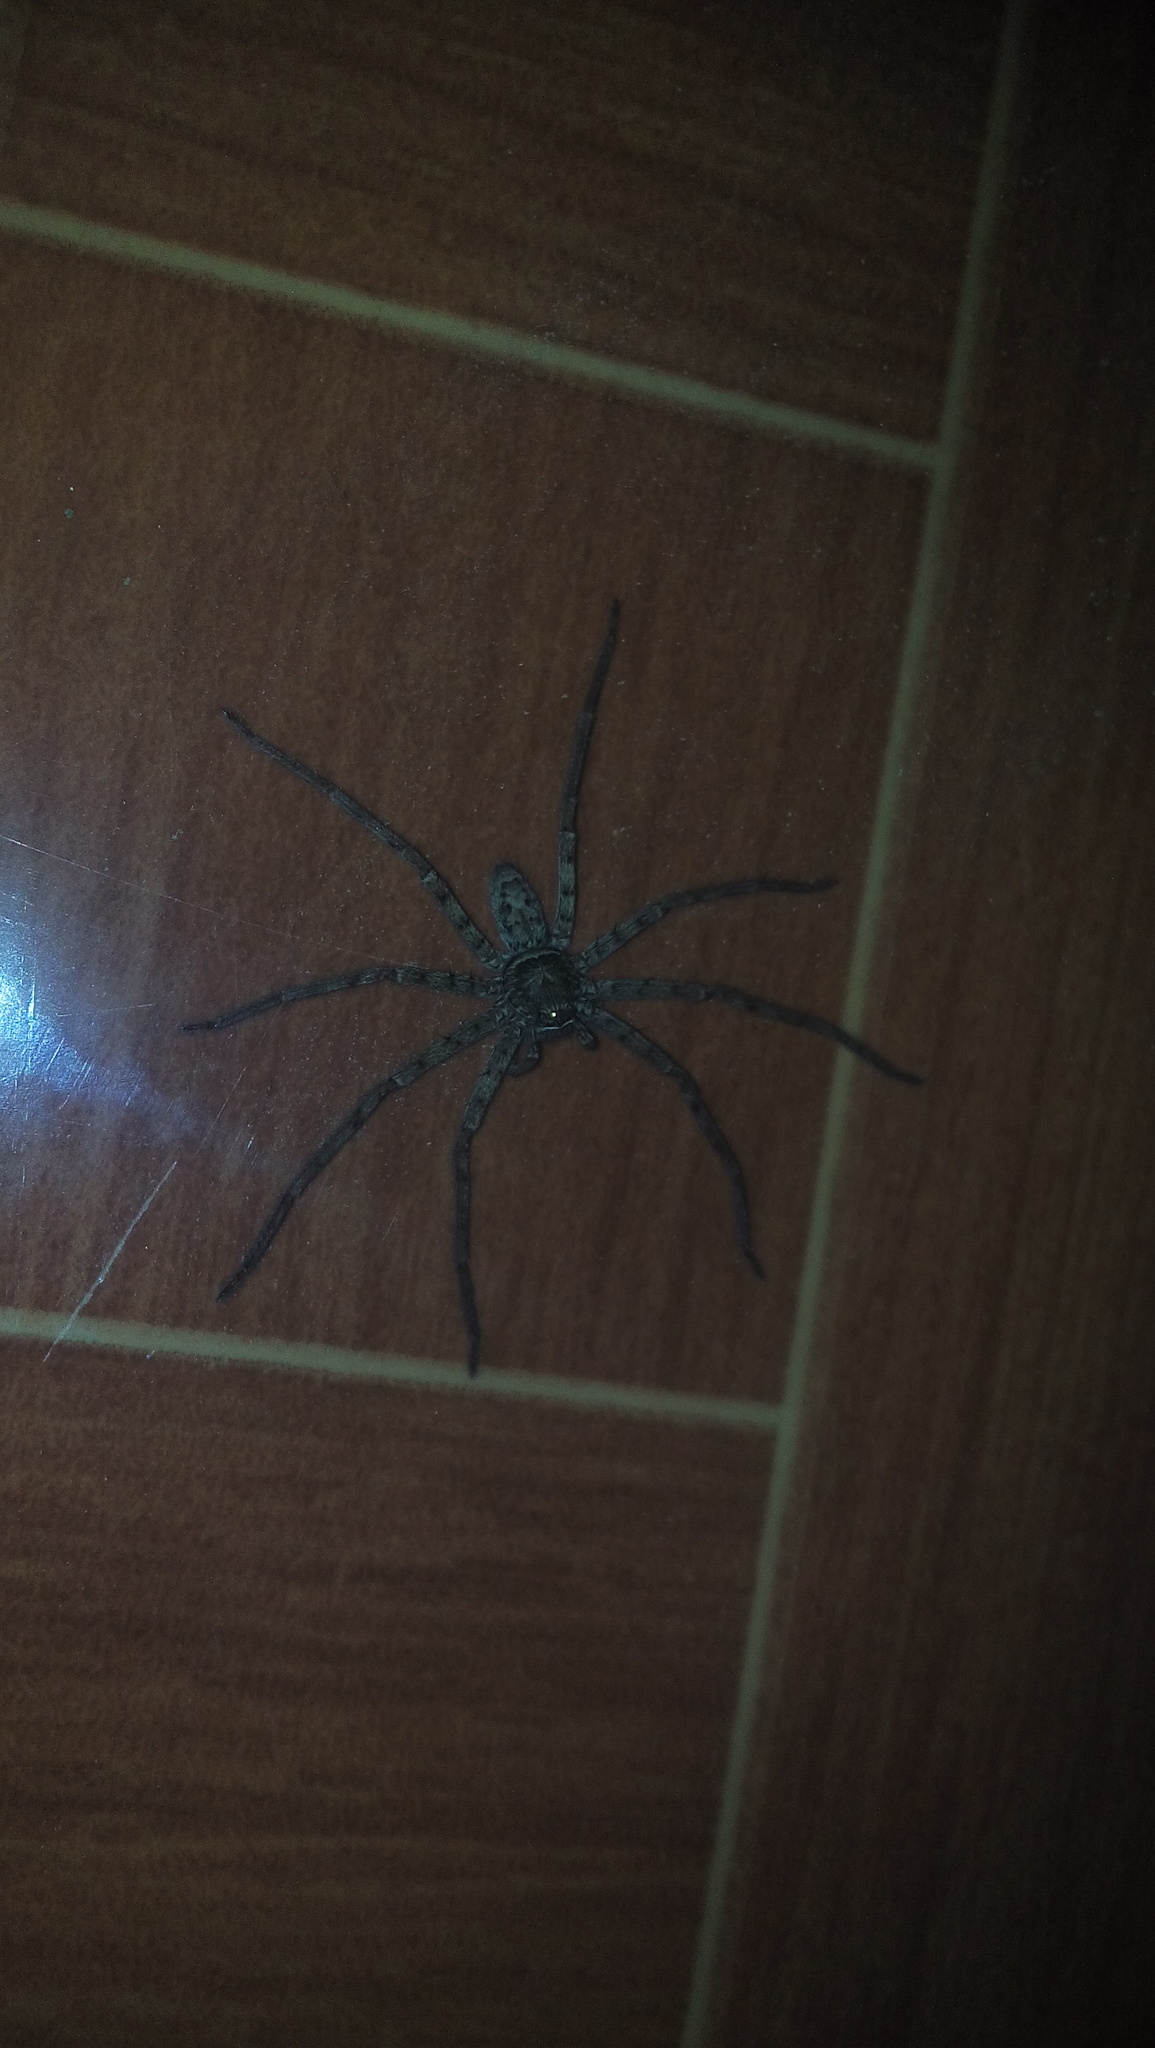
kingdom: Animalia
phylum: Arthropoda
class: Arachnida
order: Araneae
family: Sparassidae
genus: Heteropoda
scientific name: Heteropoda venatoria
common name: Huntsman spider
